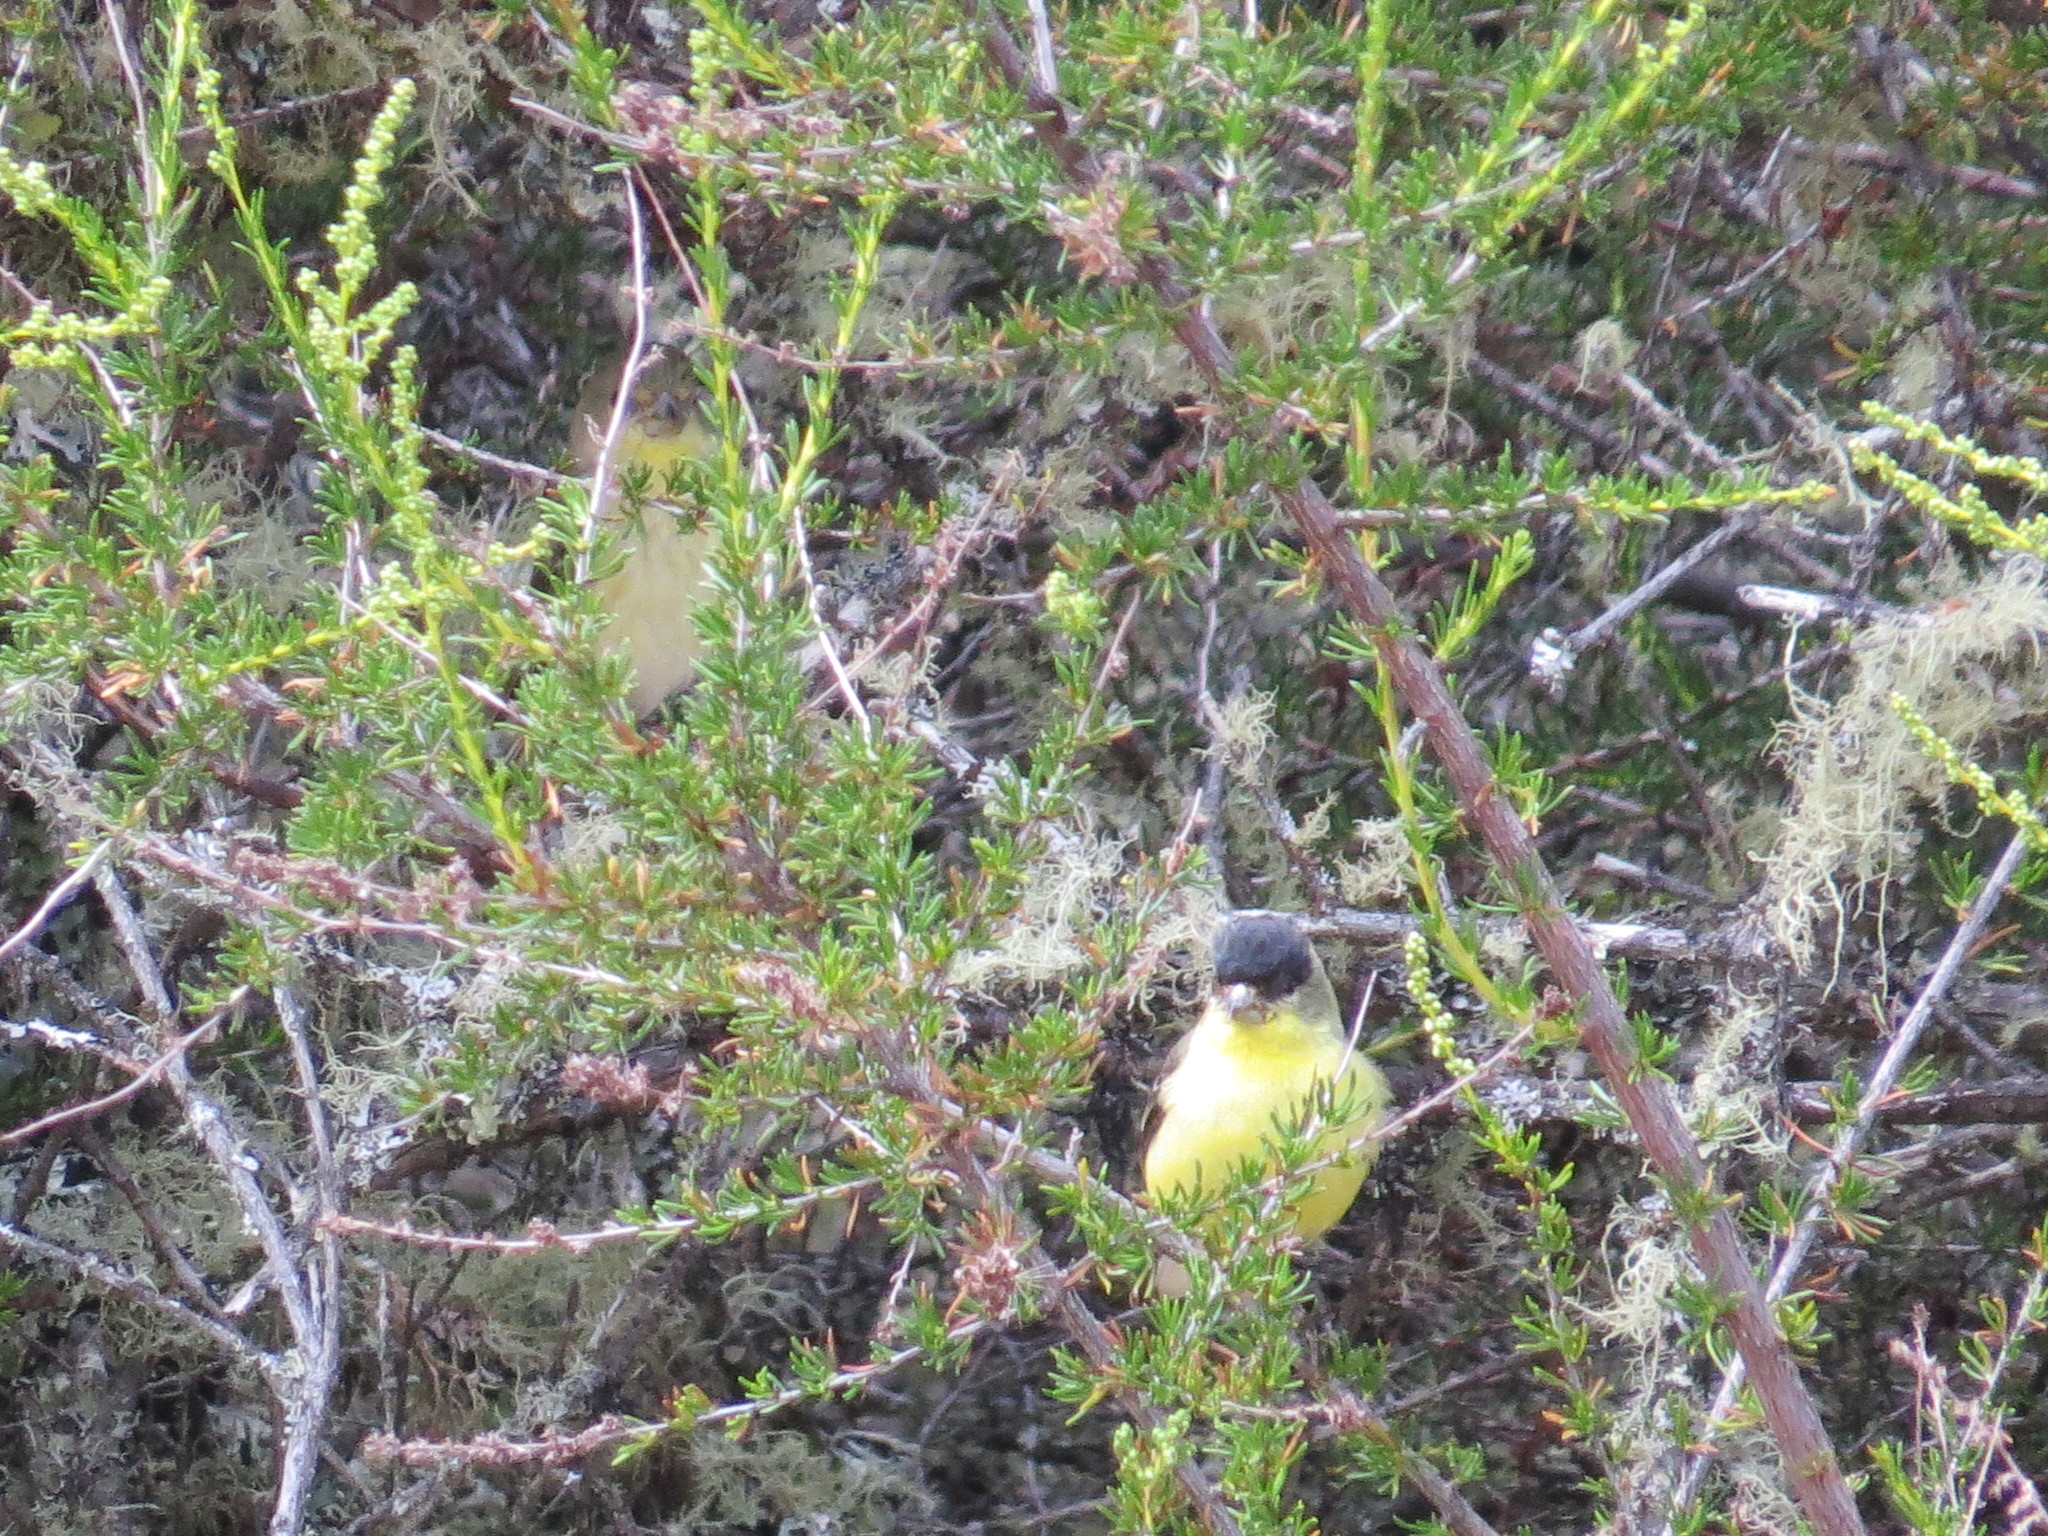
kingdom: Animalia
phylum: Chordata
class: Aves
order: Passeriformes
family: Fringillidae
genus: Spinus
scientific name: Spinus psaltria
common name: Lesser goldfinch
